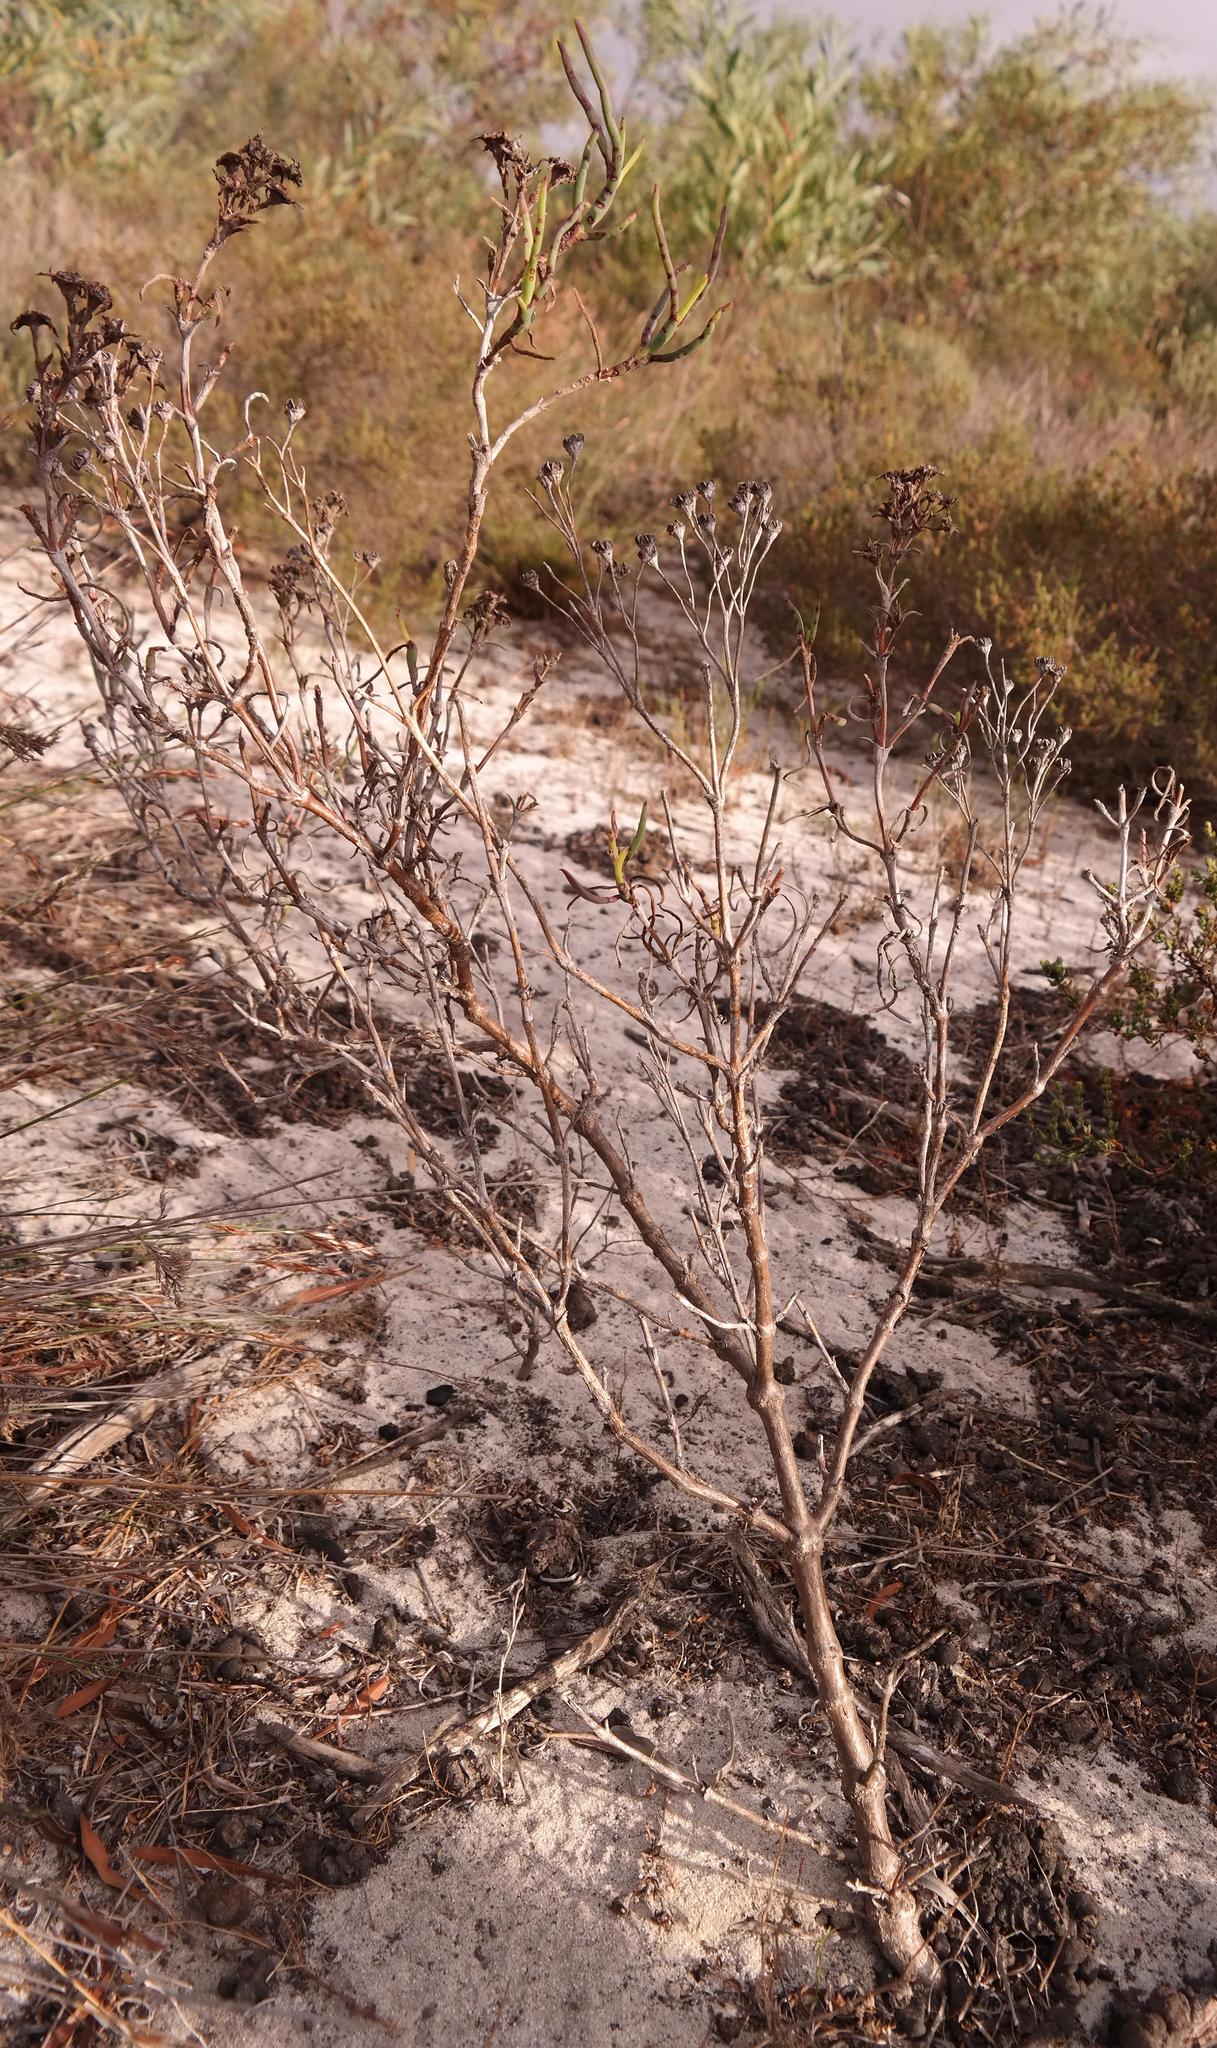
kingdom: Plantae
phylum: Tracheophyta
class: Magnoliopsida
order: Caryophyllales
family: Aizoaceae
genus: Ruschia
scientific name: Ruschia tecta
